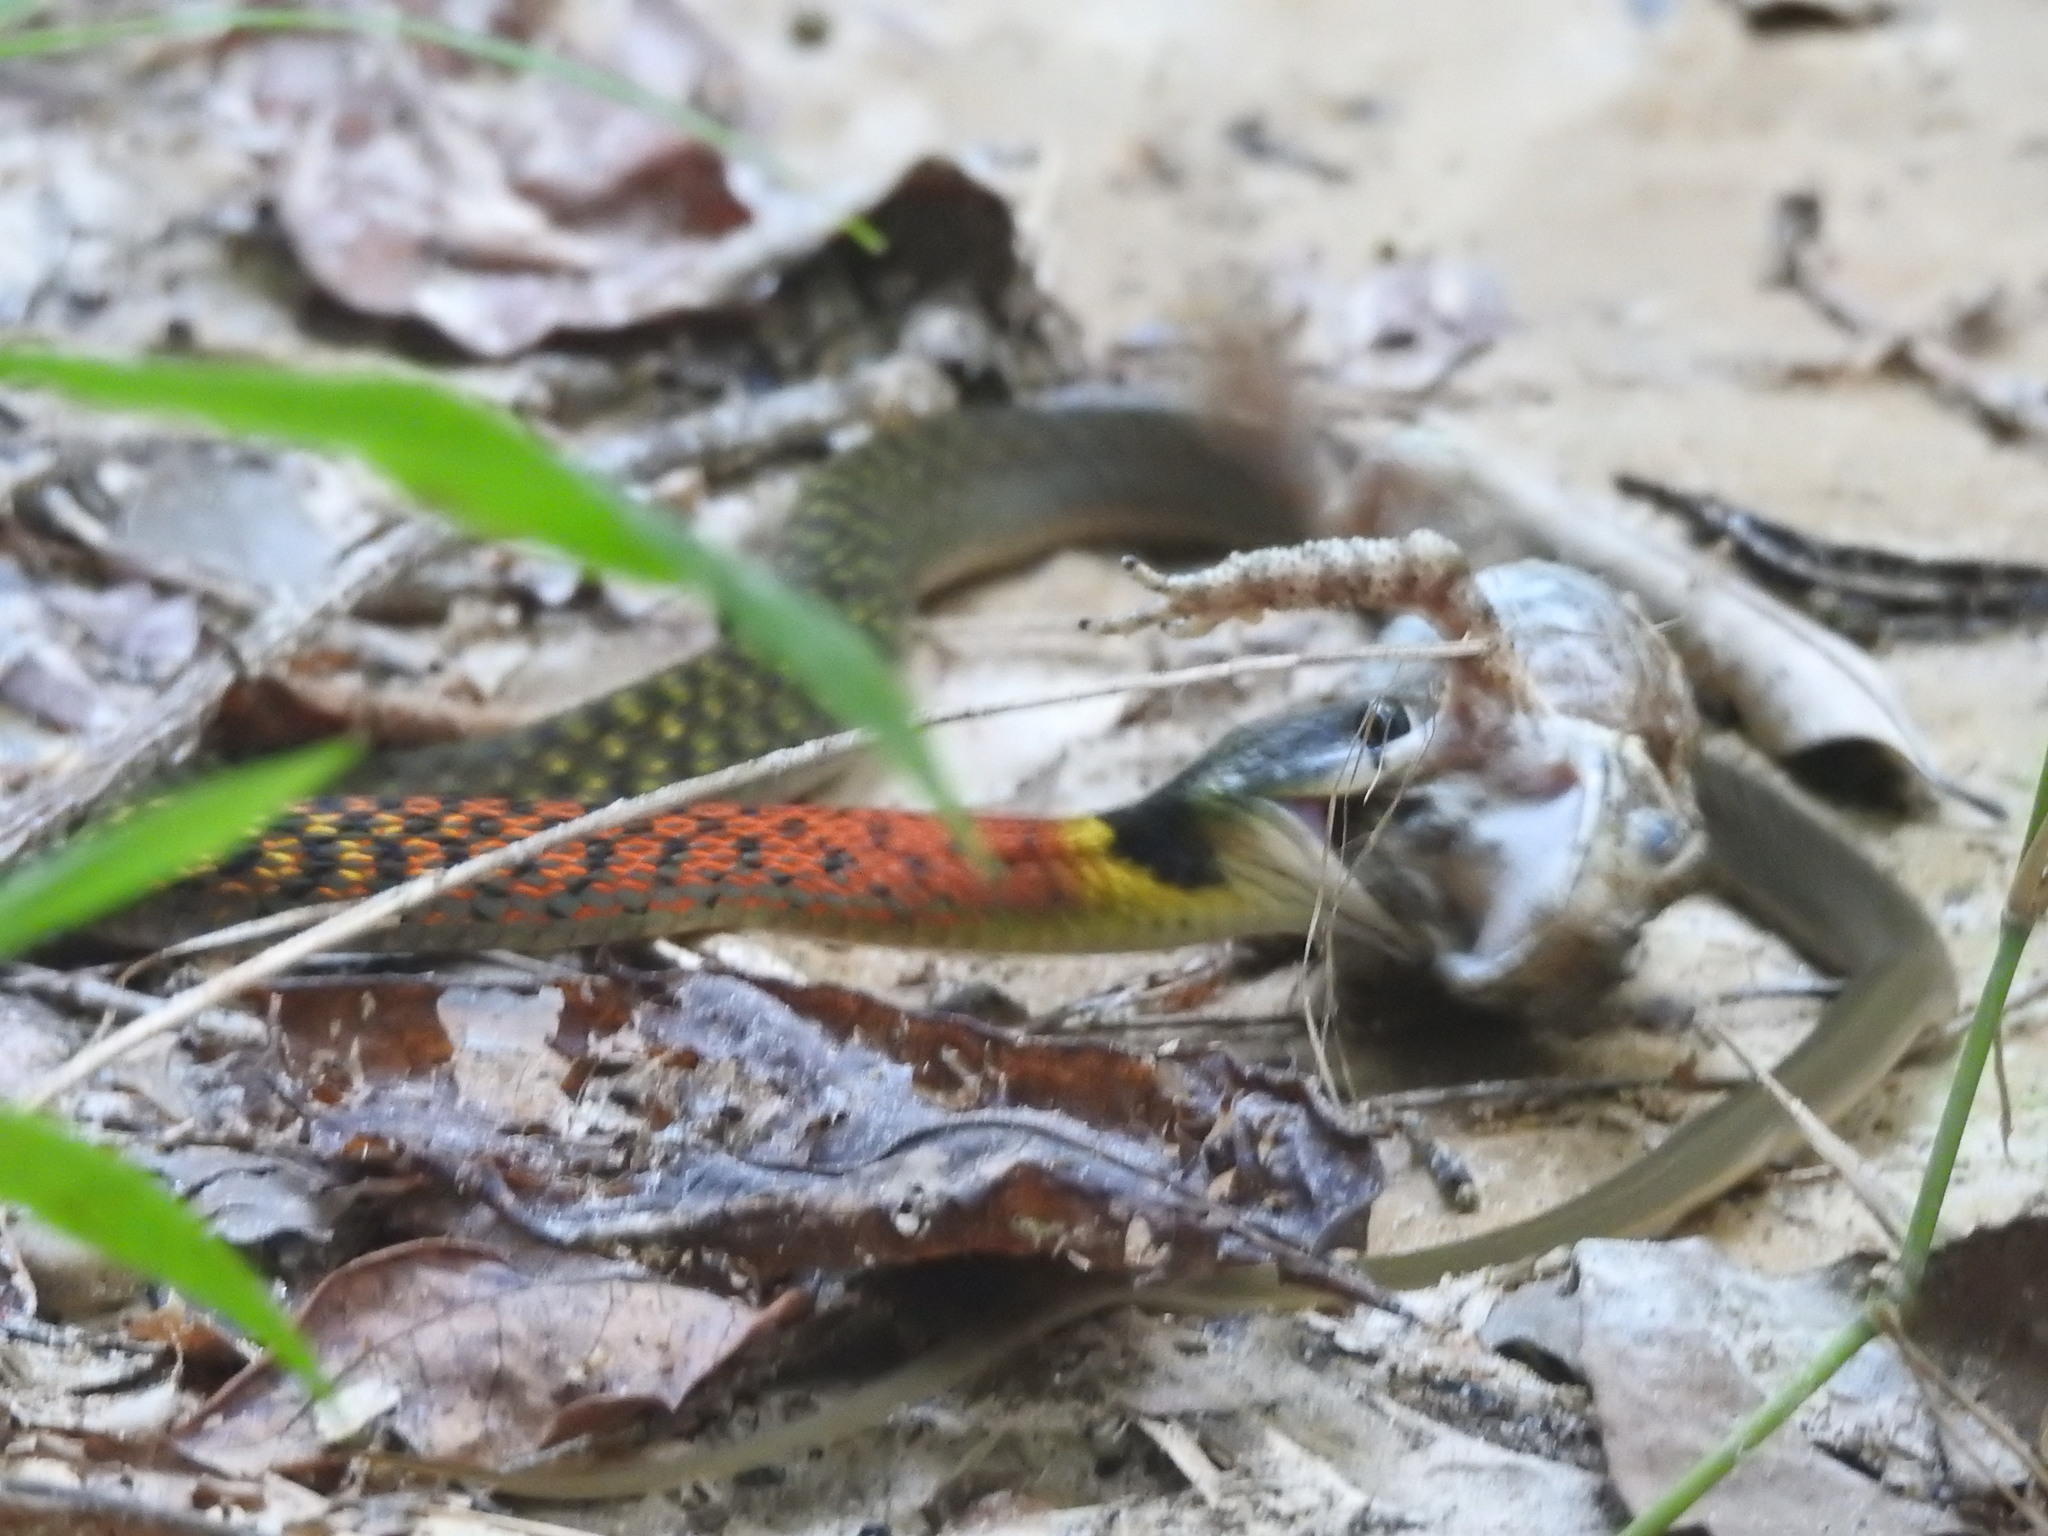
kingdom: Animalia
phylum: Chordata
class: Squamata
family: Colubridae
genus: Rhabdophis
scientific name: Rhabdophis helleri
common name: Heller’s red-necked keelback
